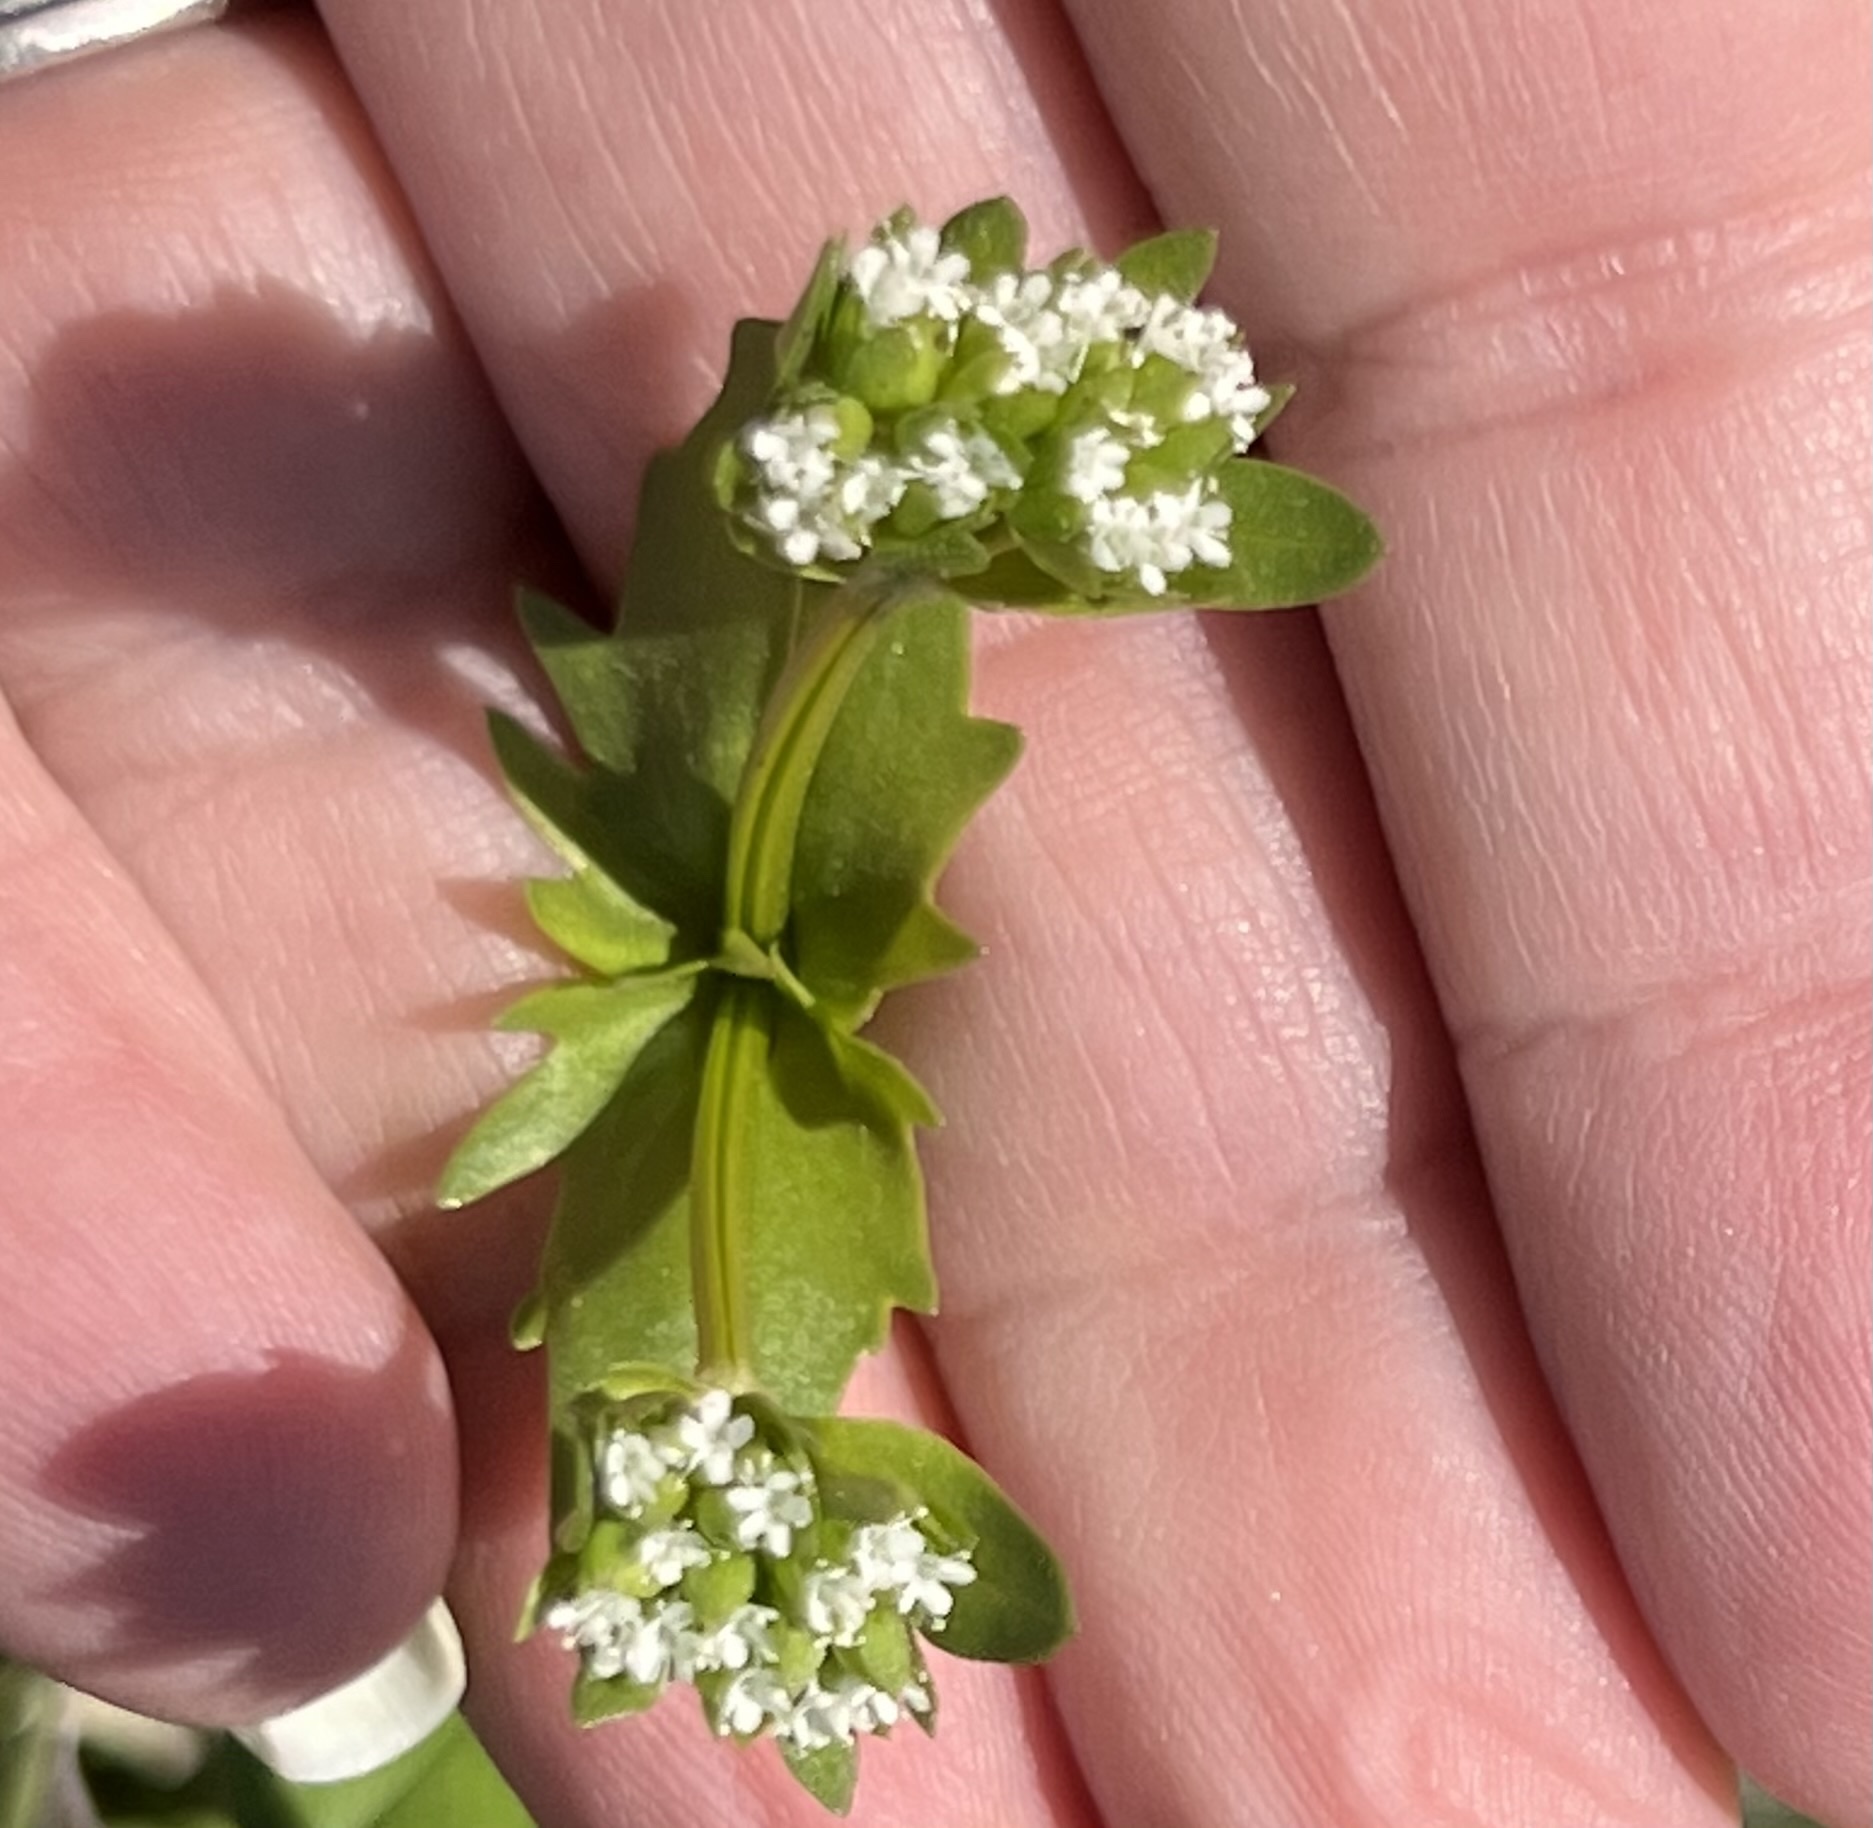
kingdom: Plantae
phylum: Tracheophyta
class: Magnoliopsida
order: Dipsacales
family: Caprifoliaceae
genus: Valerianella
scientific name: Valerianella radiata
